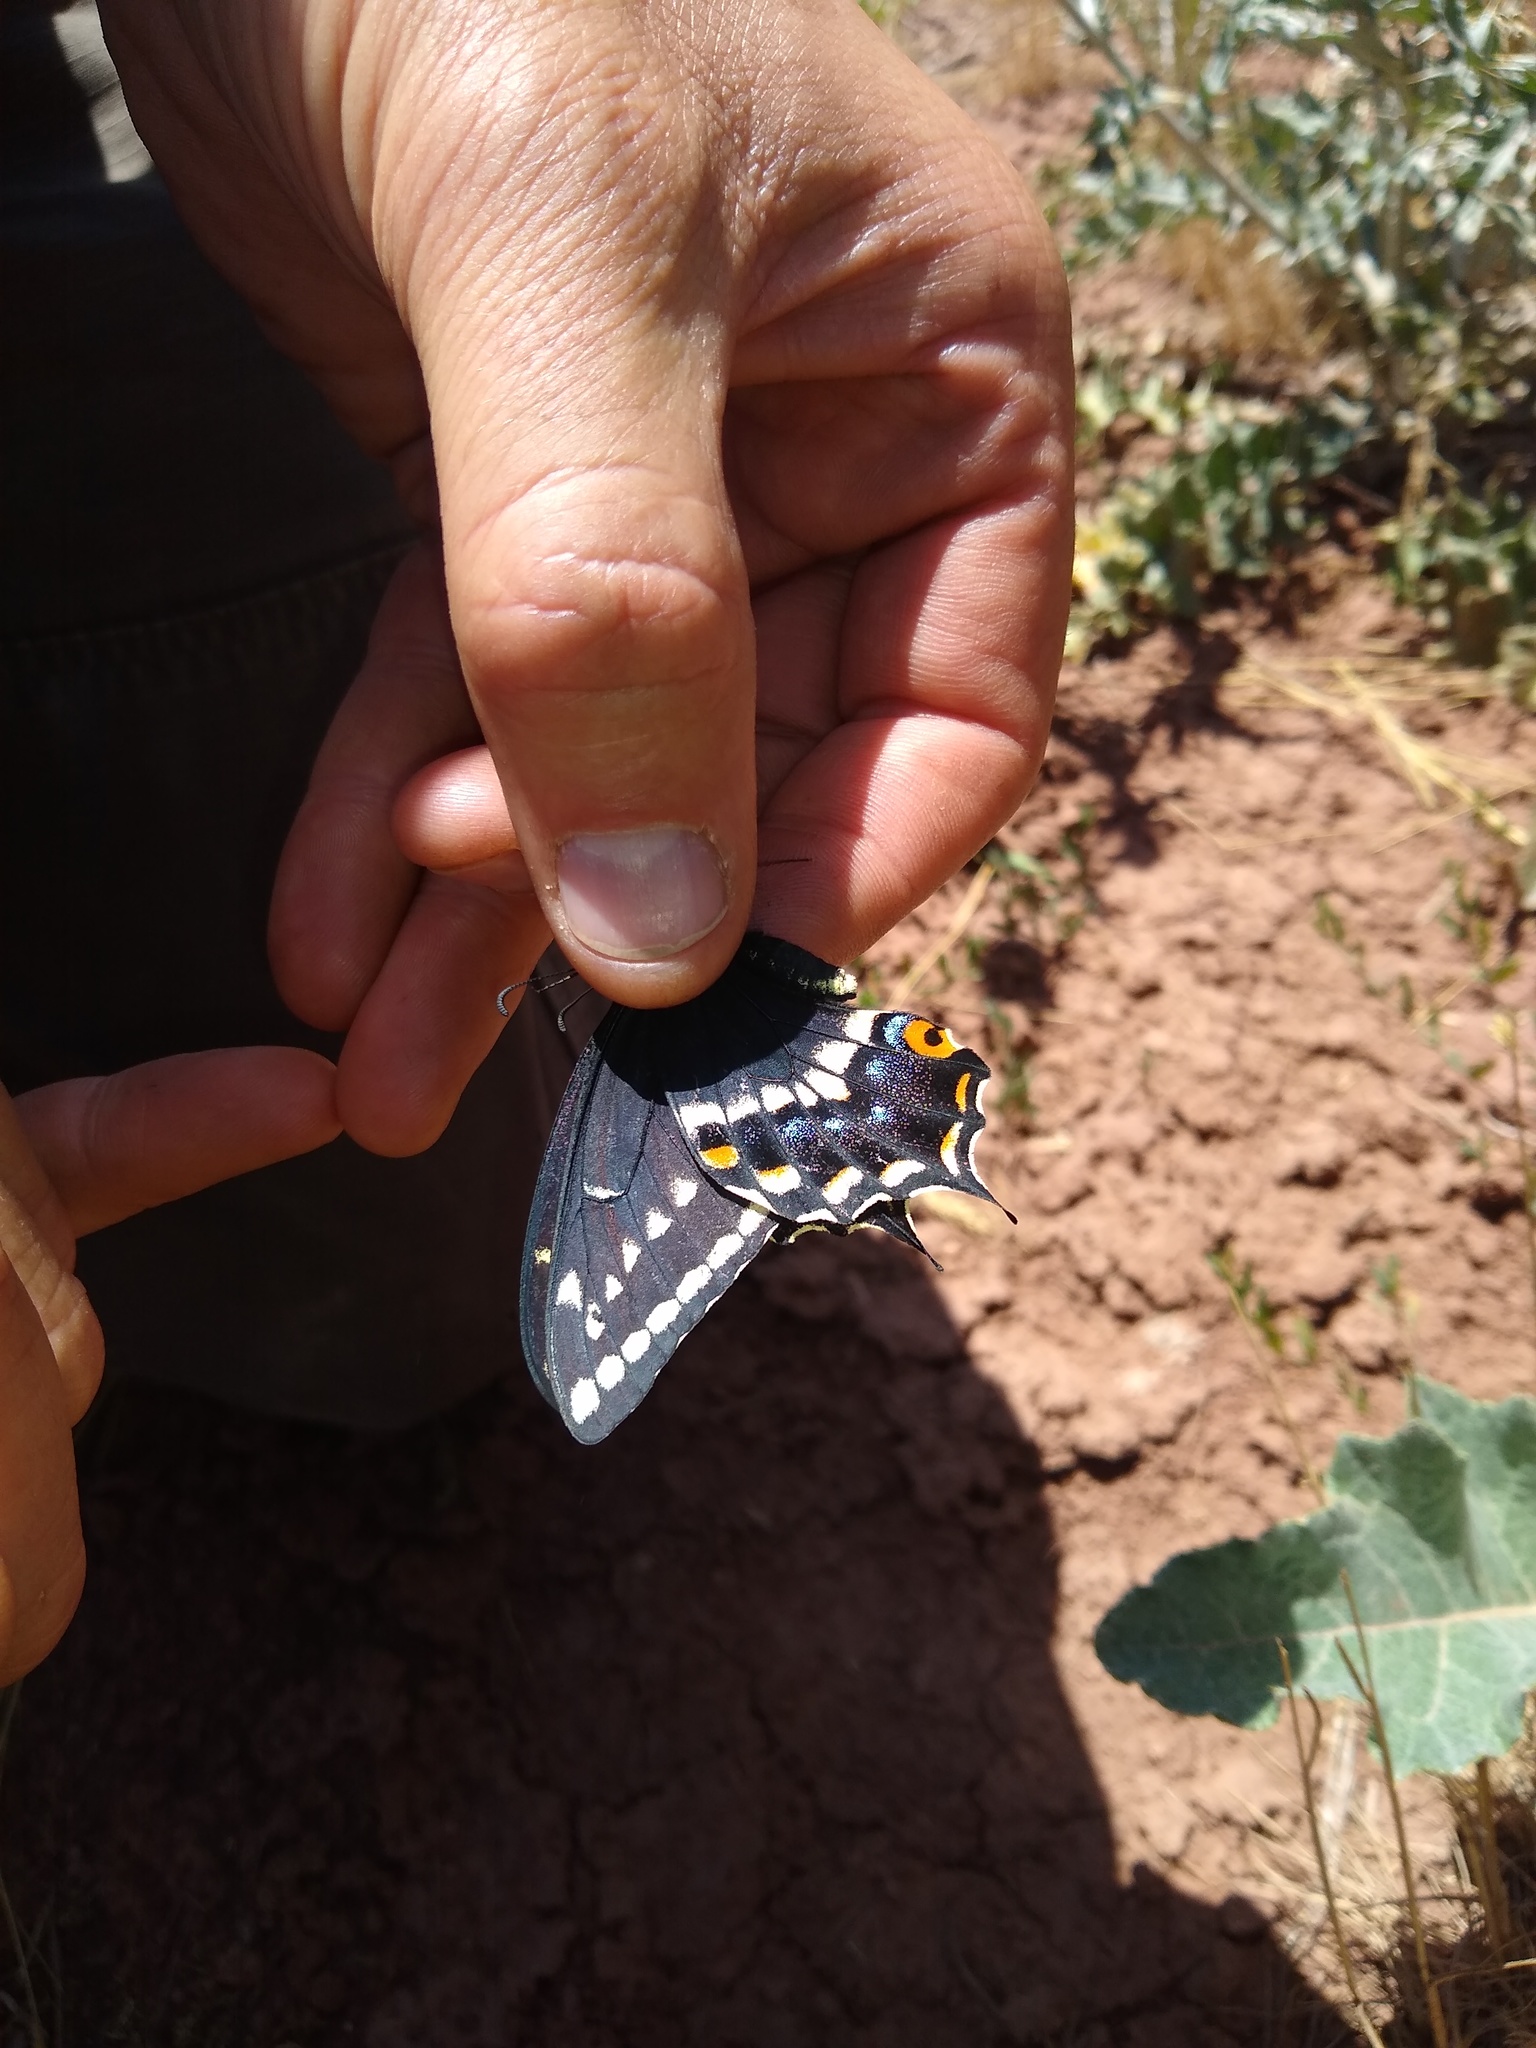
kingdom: Animalia
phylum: Arthropoda
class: Insecta
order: Lepidoptera
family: Papilionidae
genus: Papilio
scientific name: Papilio indra
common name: Cliff swallowtail
